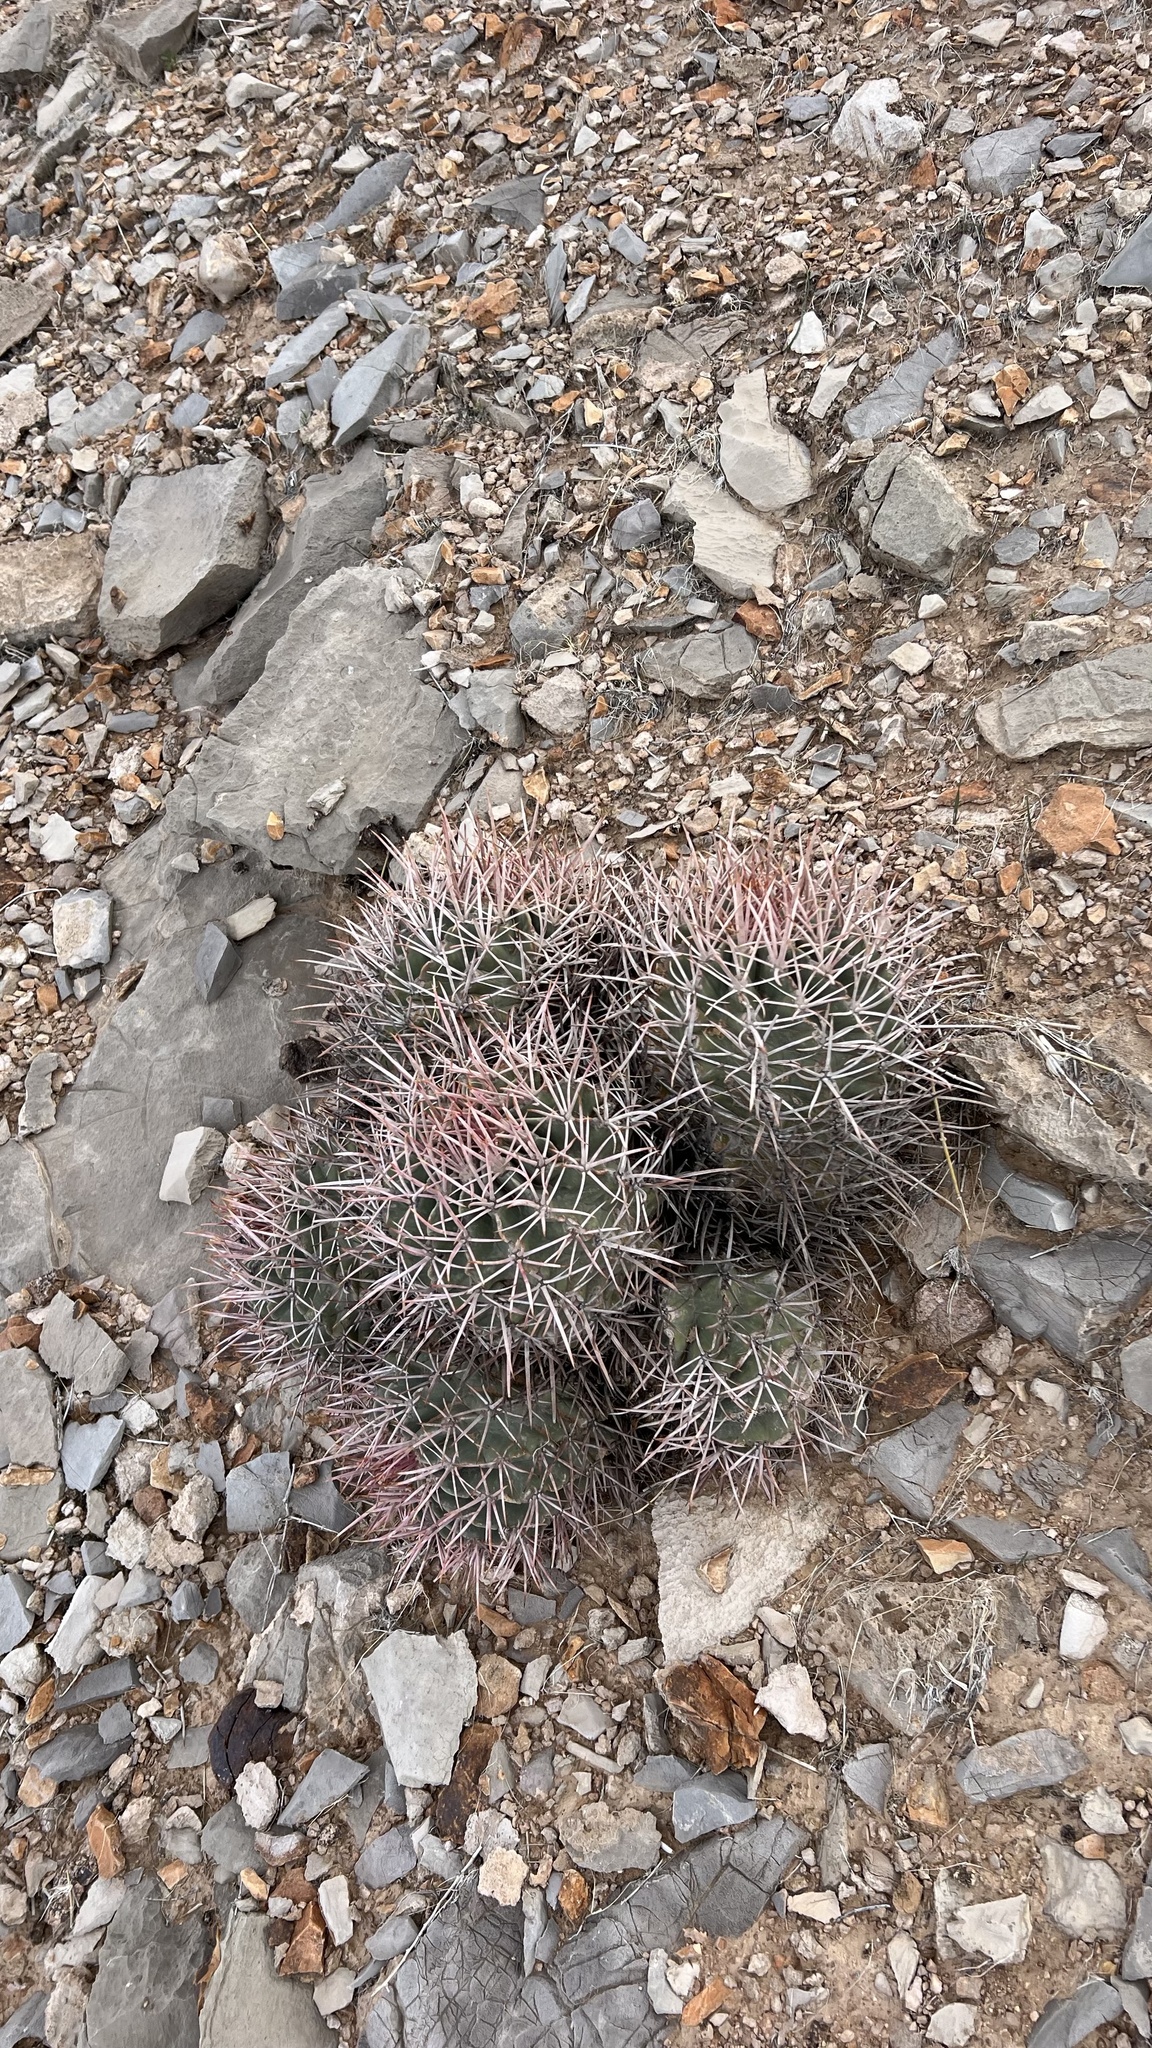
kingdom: Plantae
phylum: Tracheophyta
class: Magnoliopsida
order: Caryophyllales
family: Cactaceae
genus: Echinocactus
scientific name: Echinocactus polycephalus
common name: Cottontop cactus
